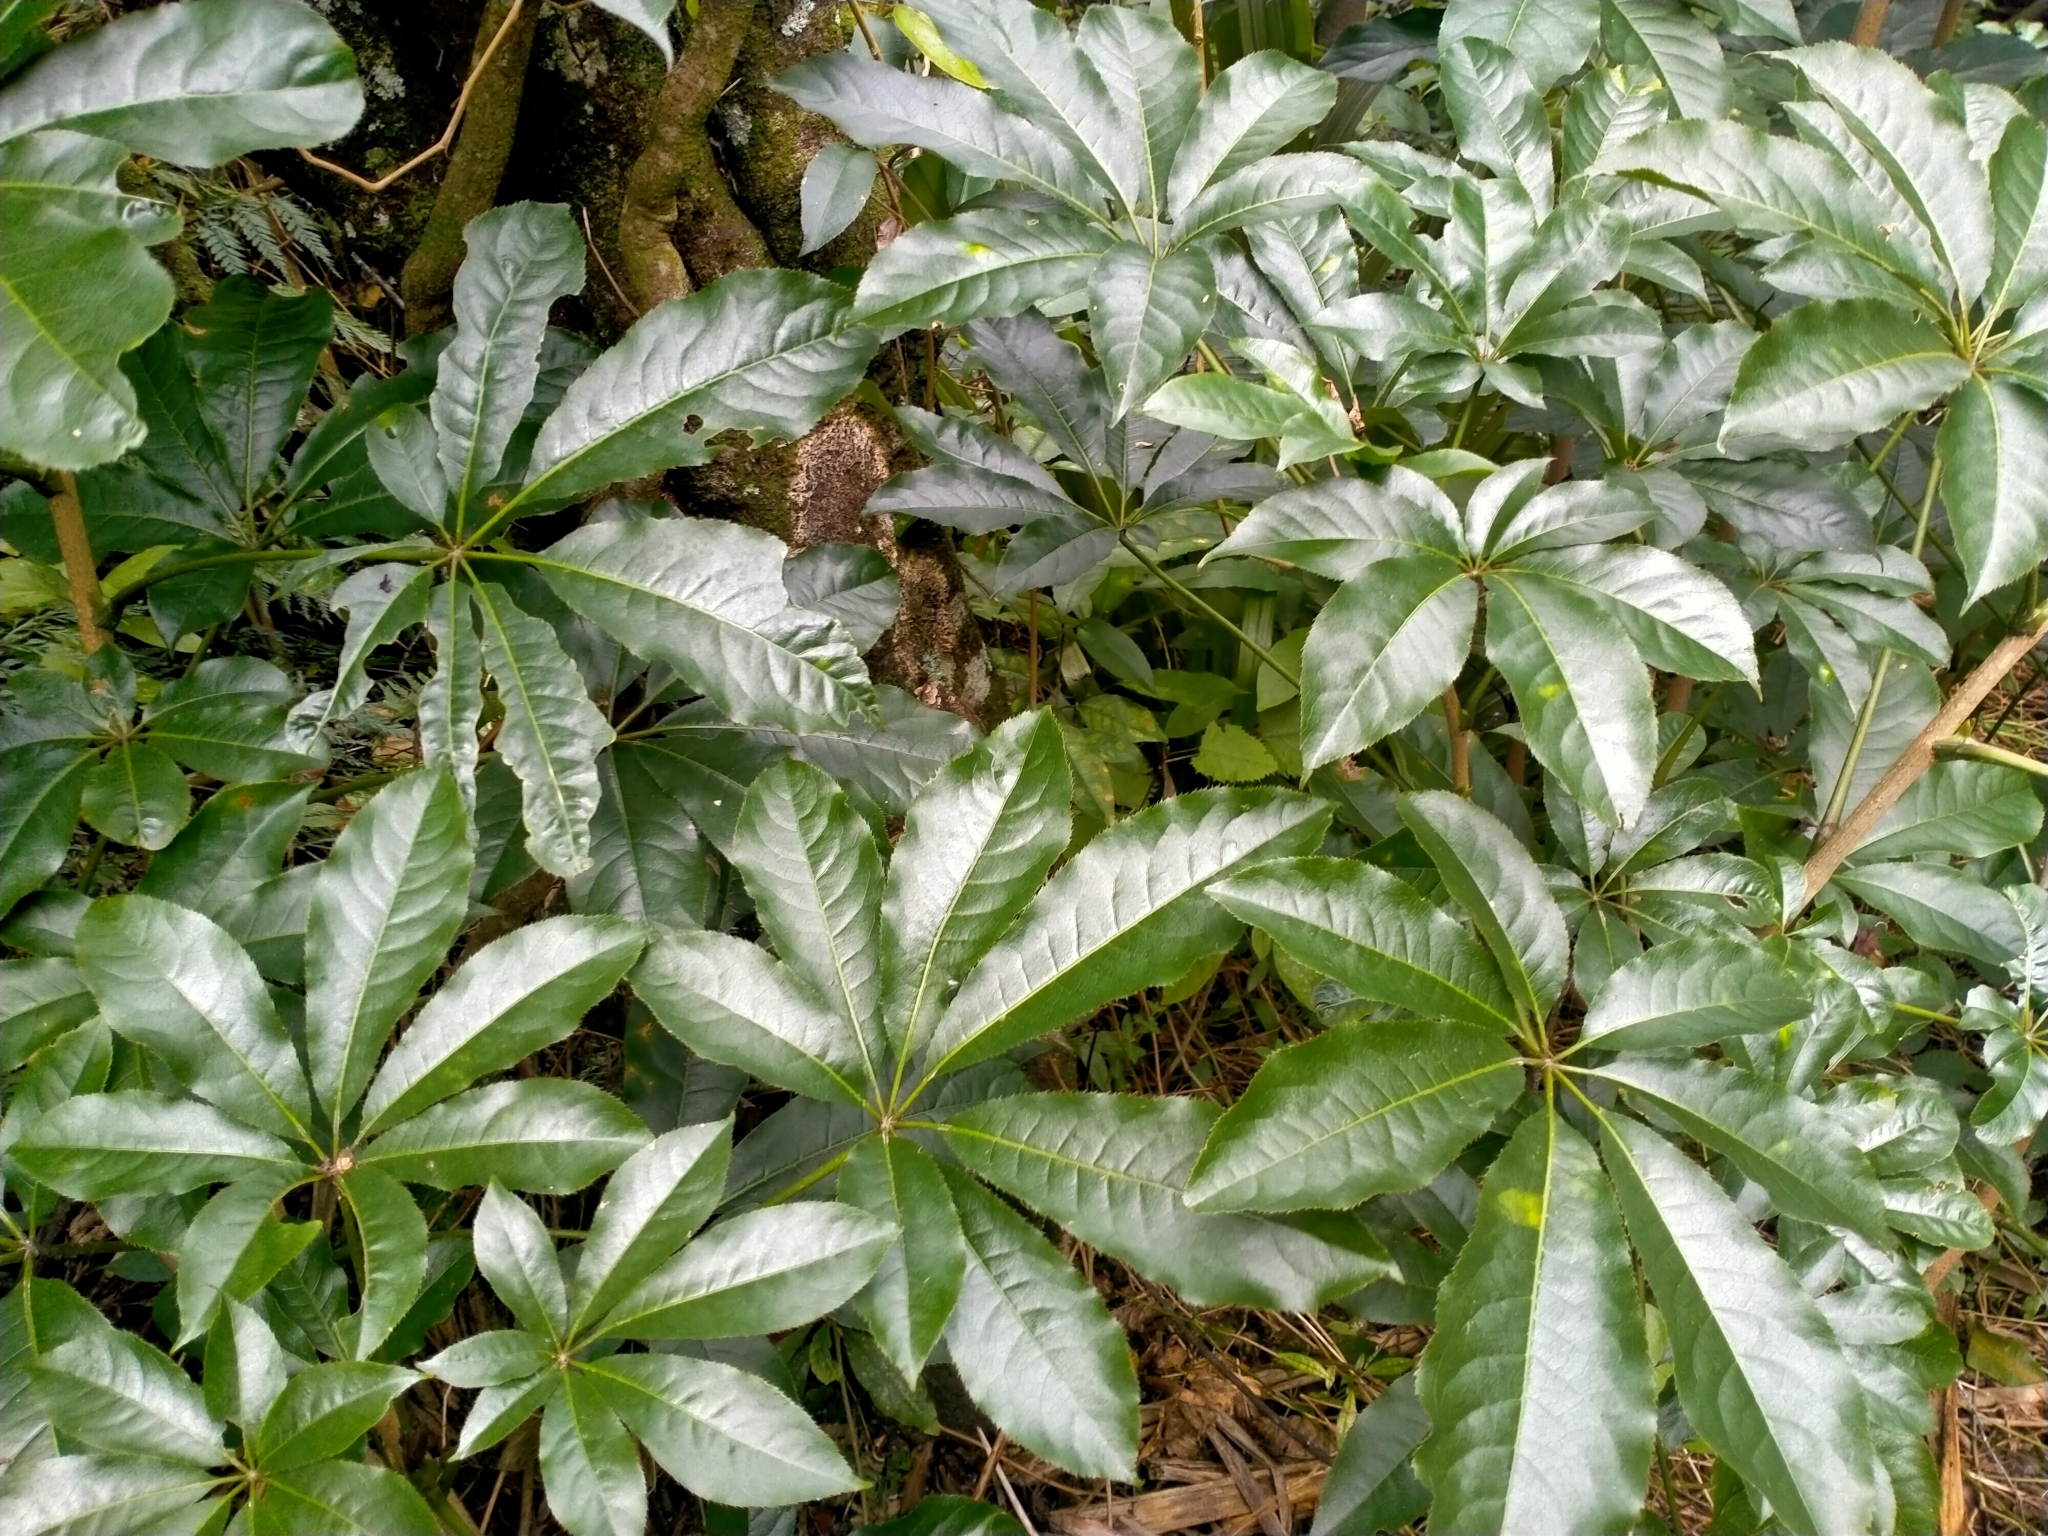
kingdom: Plantae
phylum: Tracheophyta
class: Magnoliopsida
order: Apiales
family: Araliaceae
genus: Schefflera
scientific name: Schefflera digitata
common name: Pate
